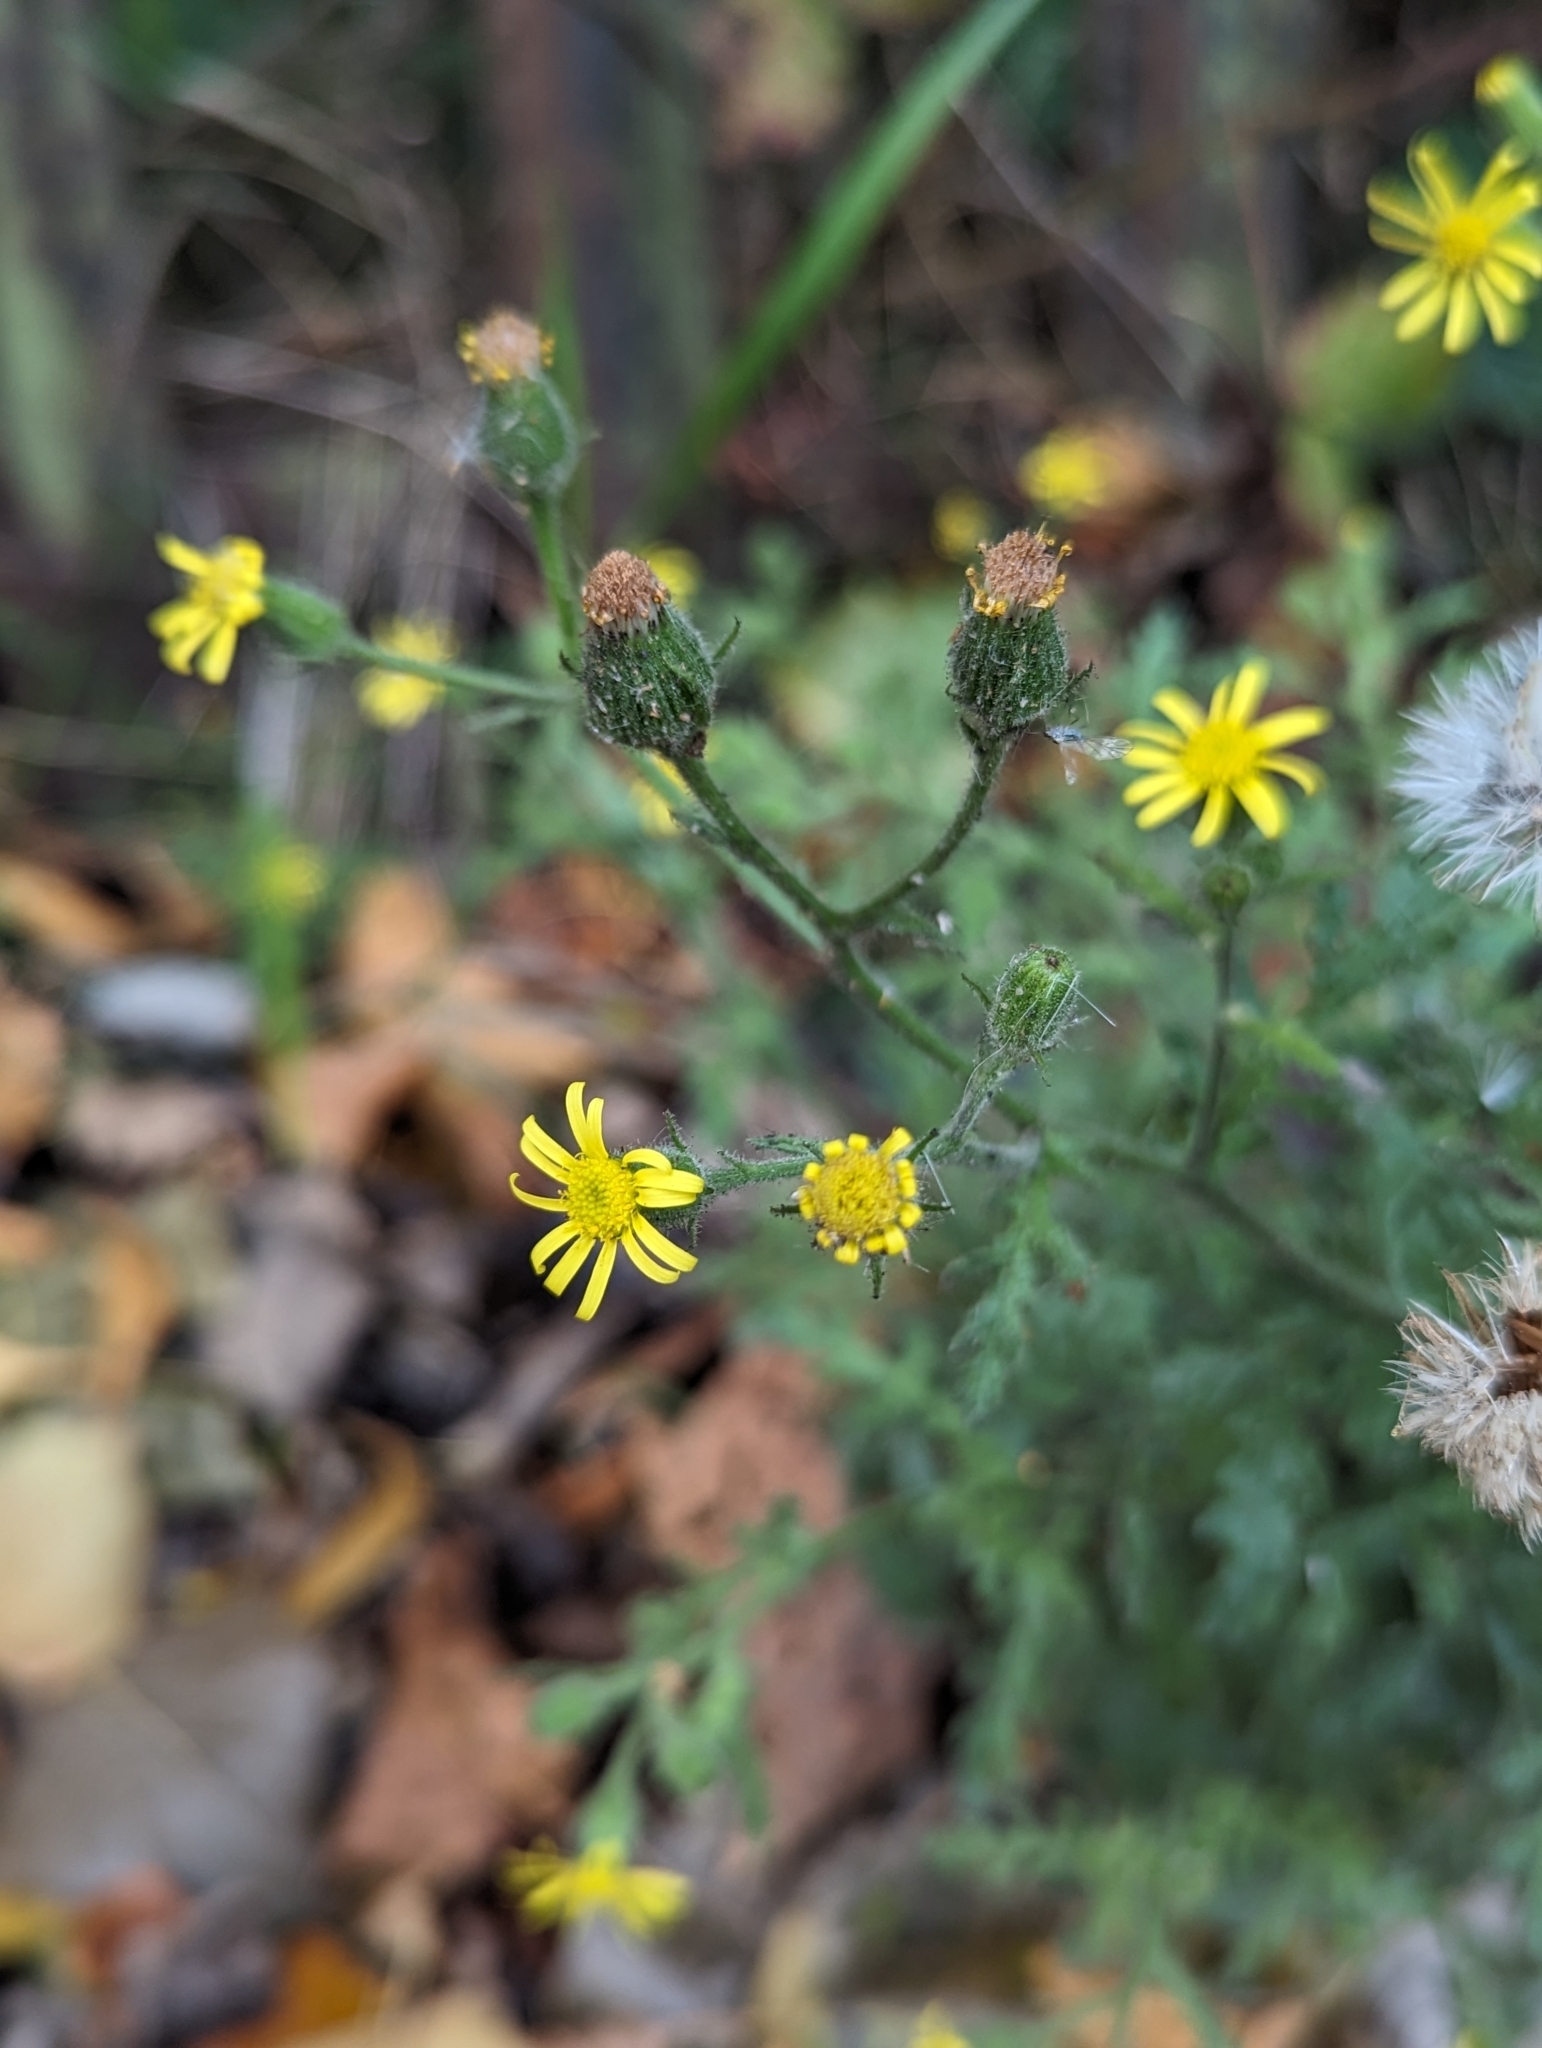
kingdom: Plantae
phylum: Tracheophyta
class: Magnoliopsida
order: Asterales
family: Asteraceae
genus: Senecio
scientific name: Senecio viscosus
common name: Sticky groundsel
